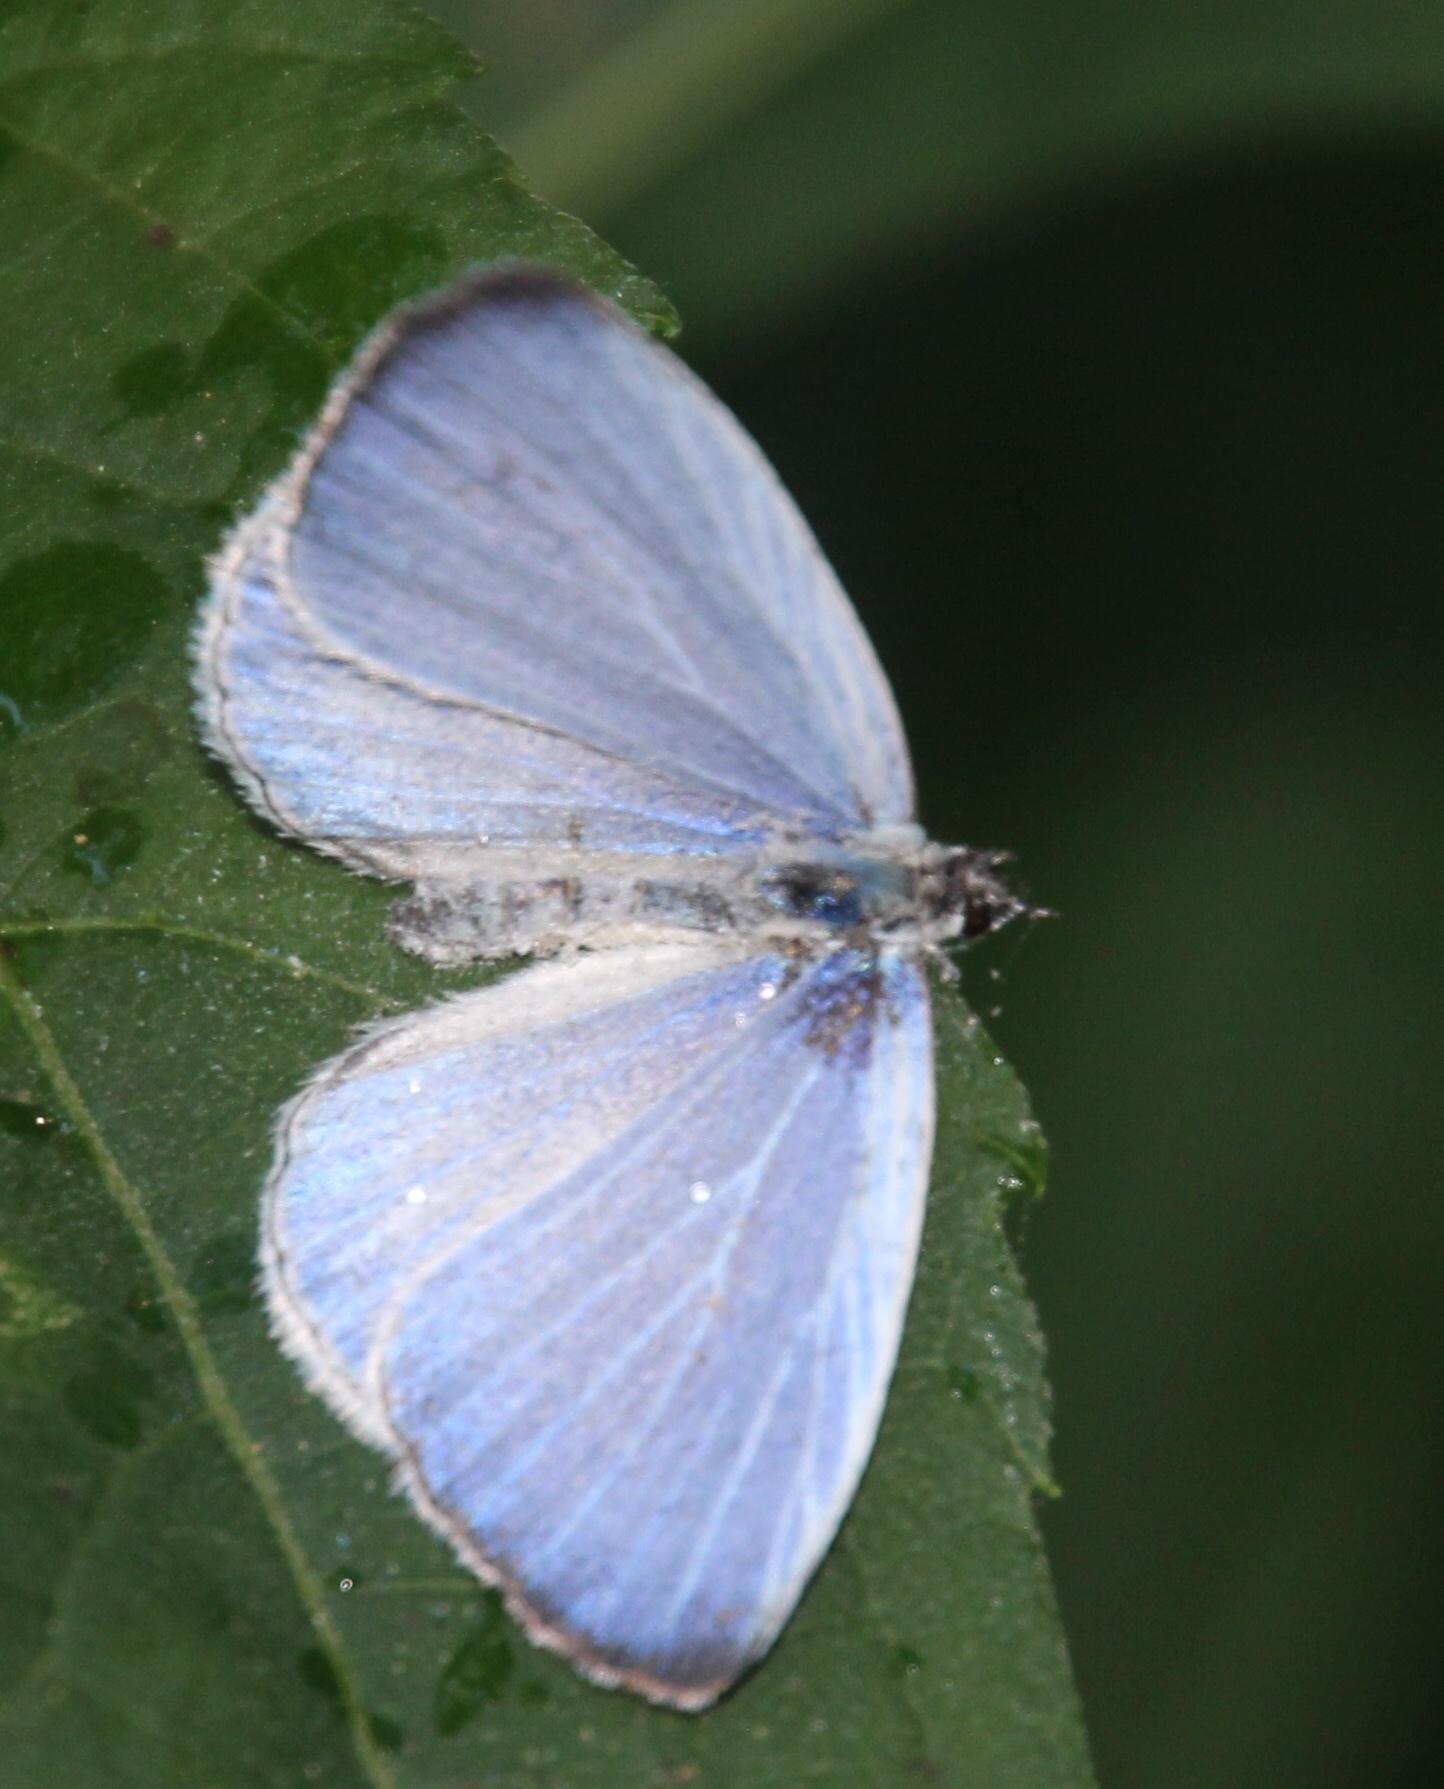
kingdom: Animalia
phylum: Arthropoda
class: Insecta
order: Lepidoptera
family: Lycaenidae
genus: Cyaniris
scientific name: Cyaniris neglecta
